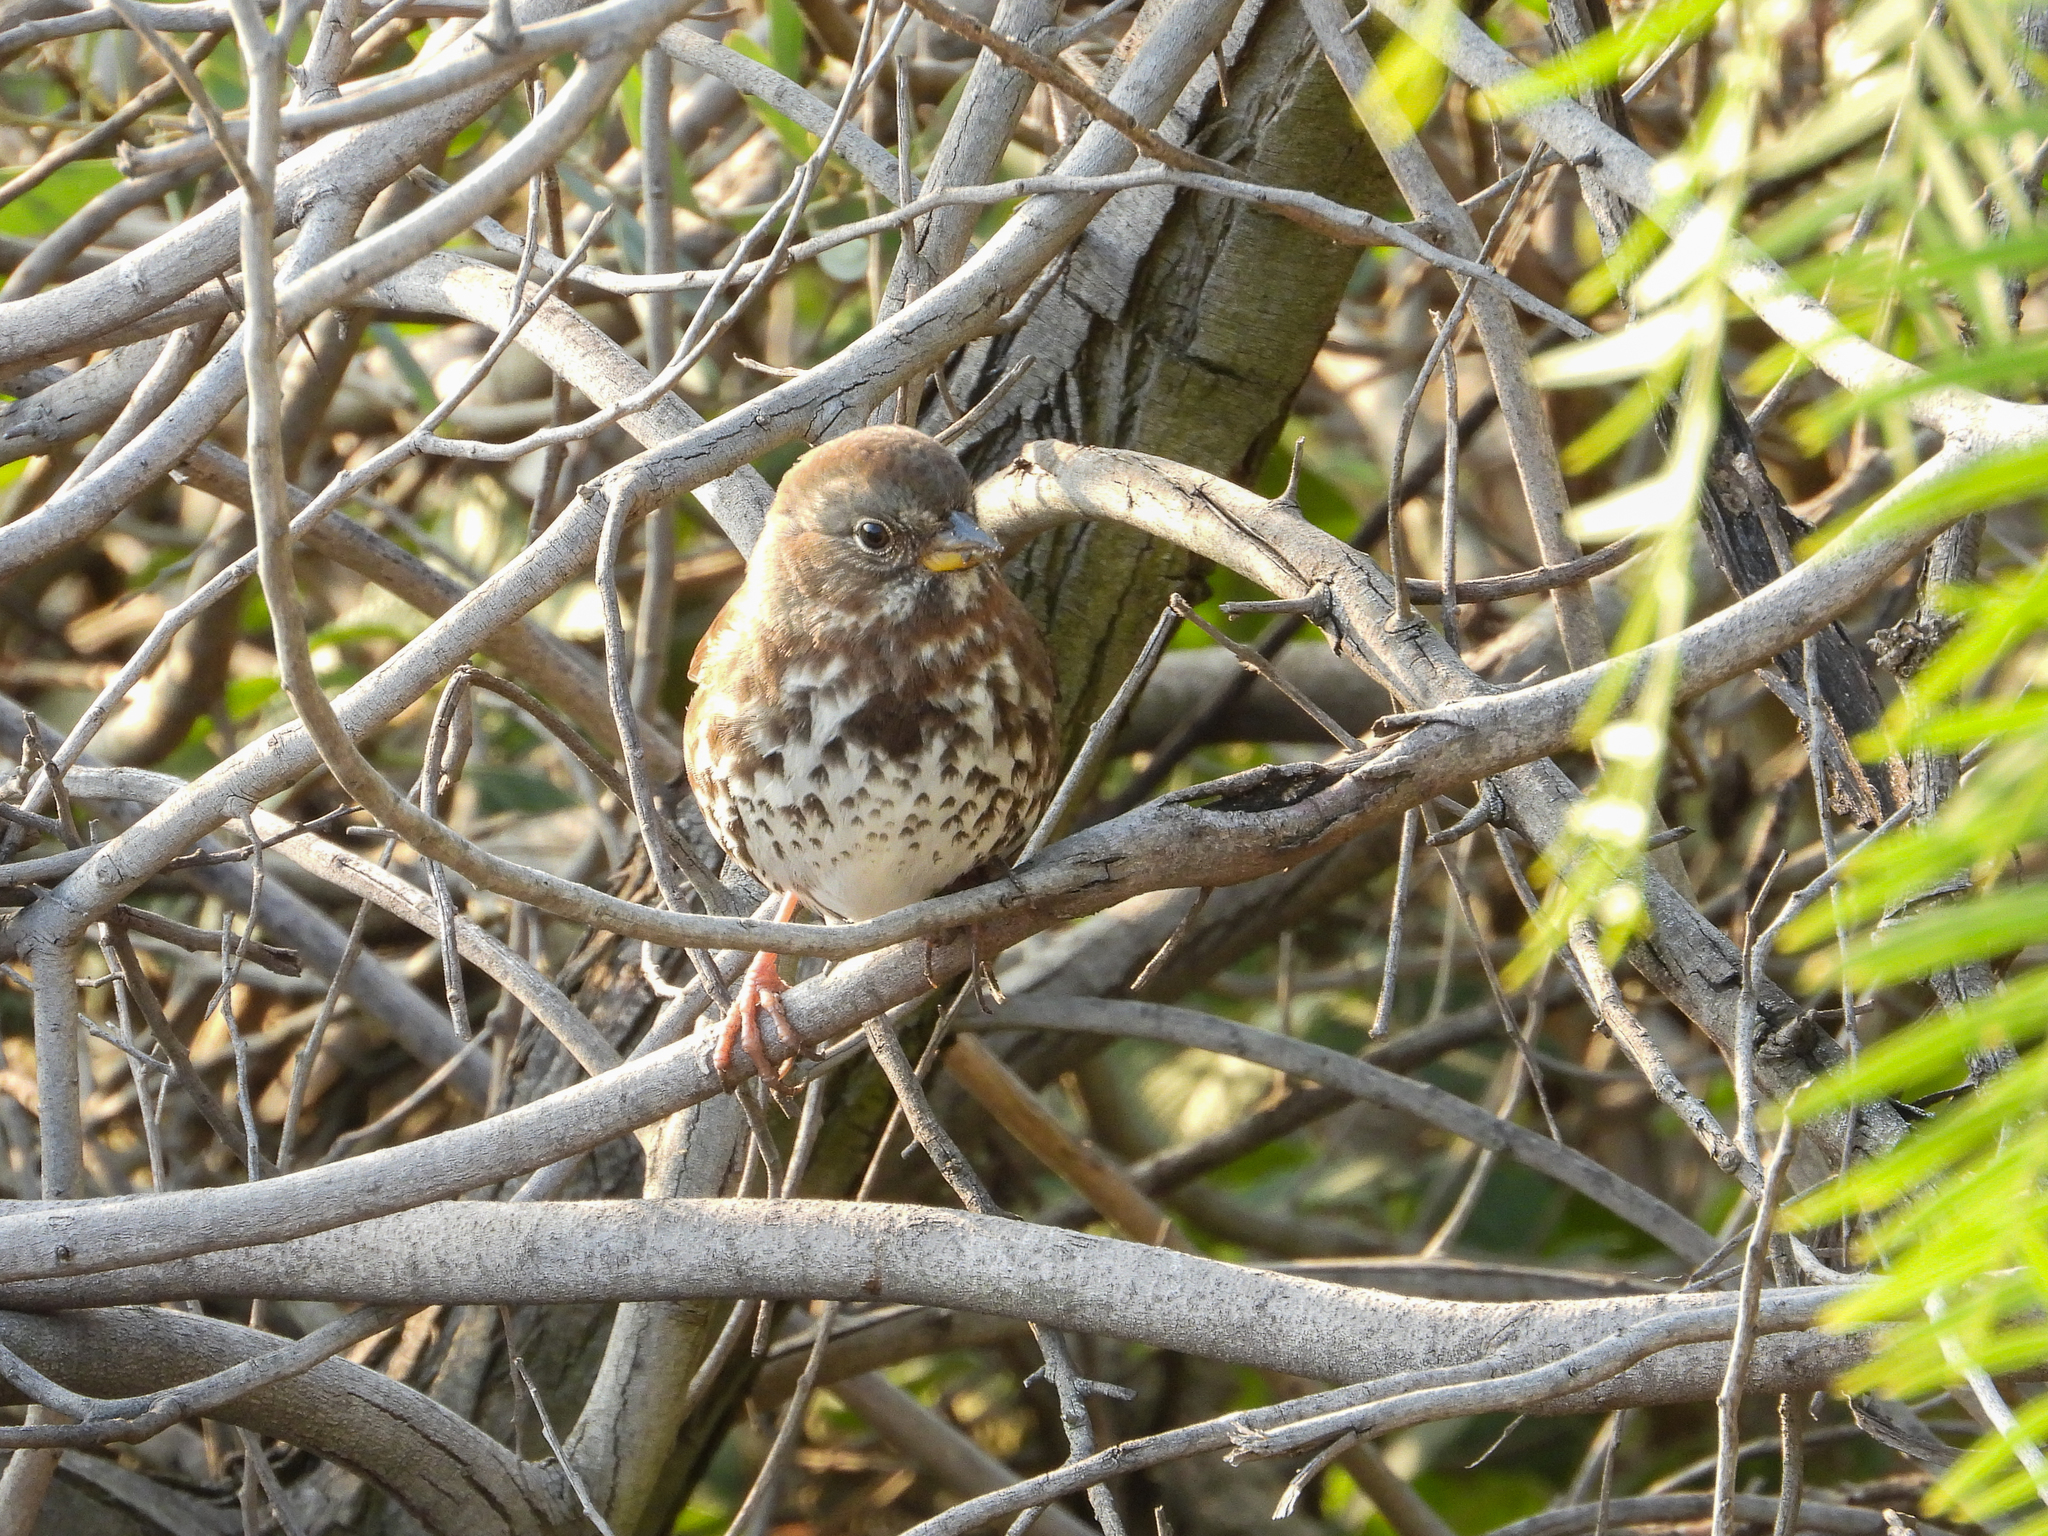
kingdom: Animalia
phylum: Chordata
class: Aves
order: Passeriformes
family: Passerellidae
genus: Passerella
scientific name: Passerella iliaca
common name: Fox sparrow
